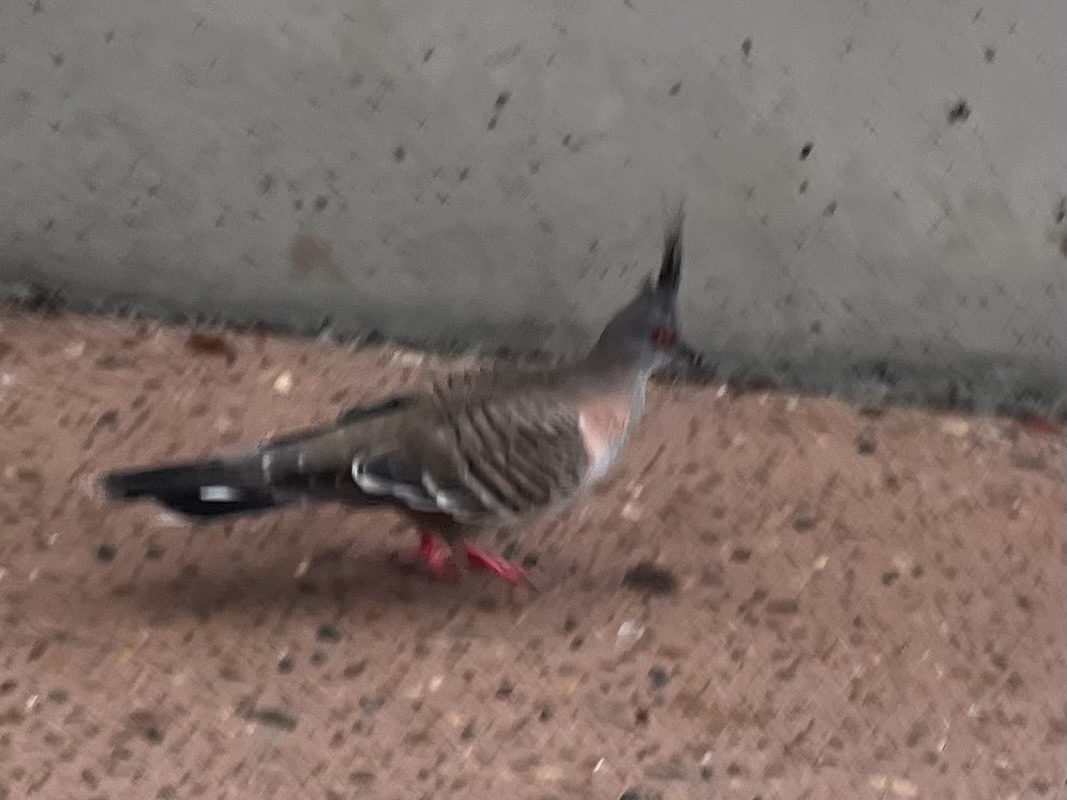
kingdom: Animalia
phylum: Chordata
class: Aves
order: Columbiformes
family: Columbidae
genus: Ocyphaps
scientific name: Ocyphaps lophotes
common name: Crested pigeon
